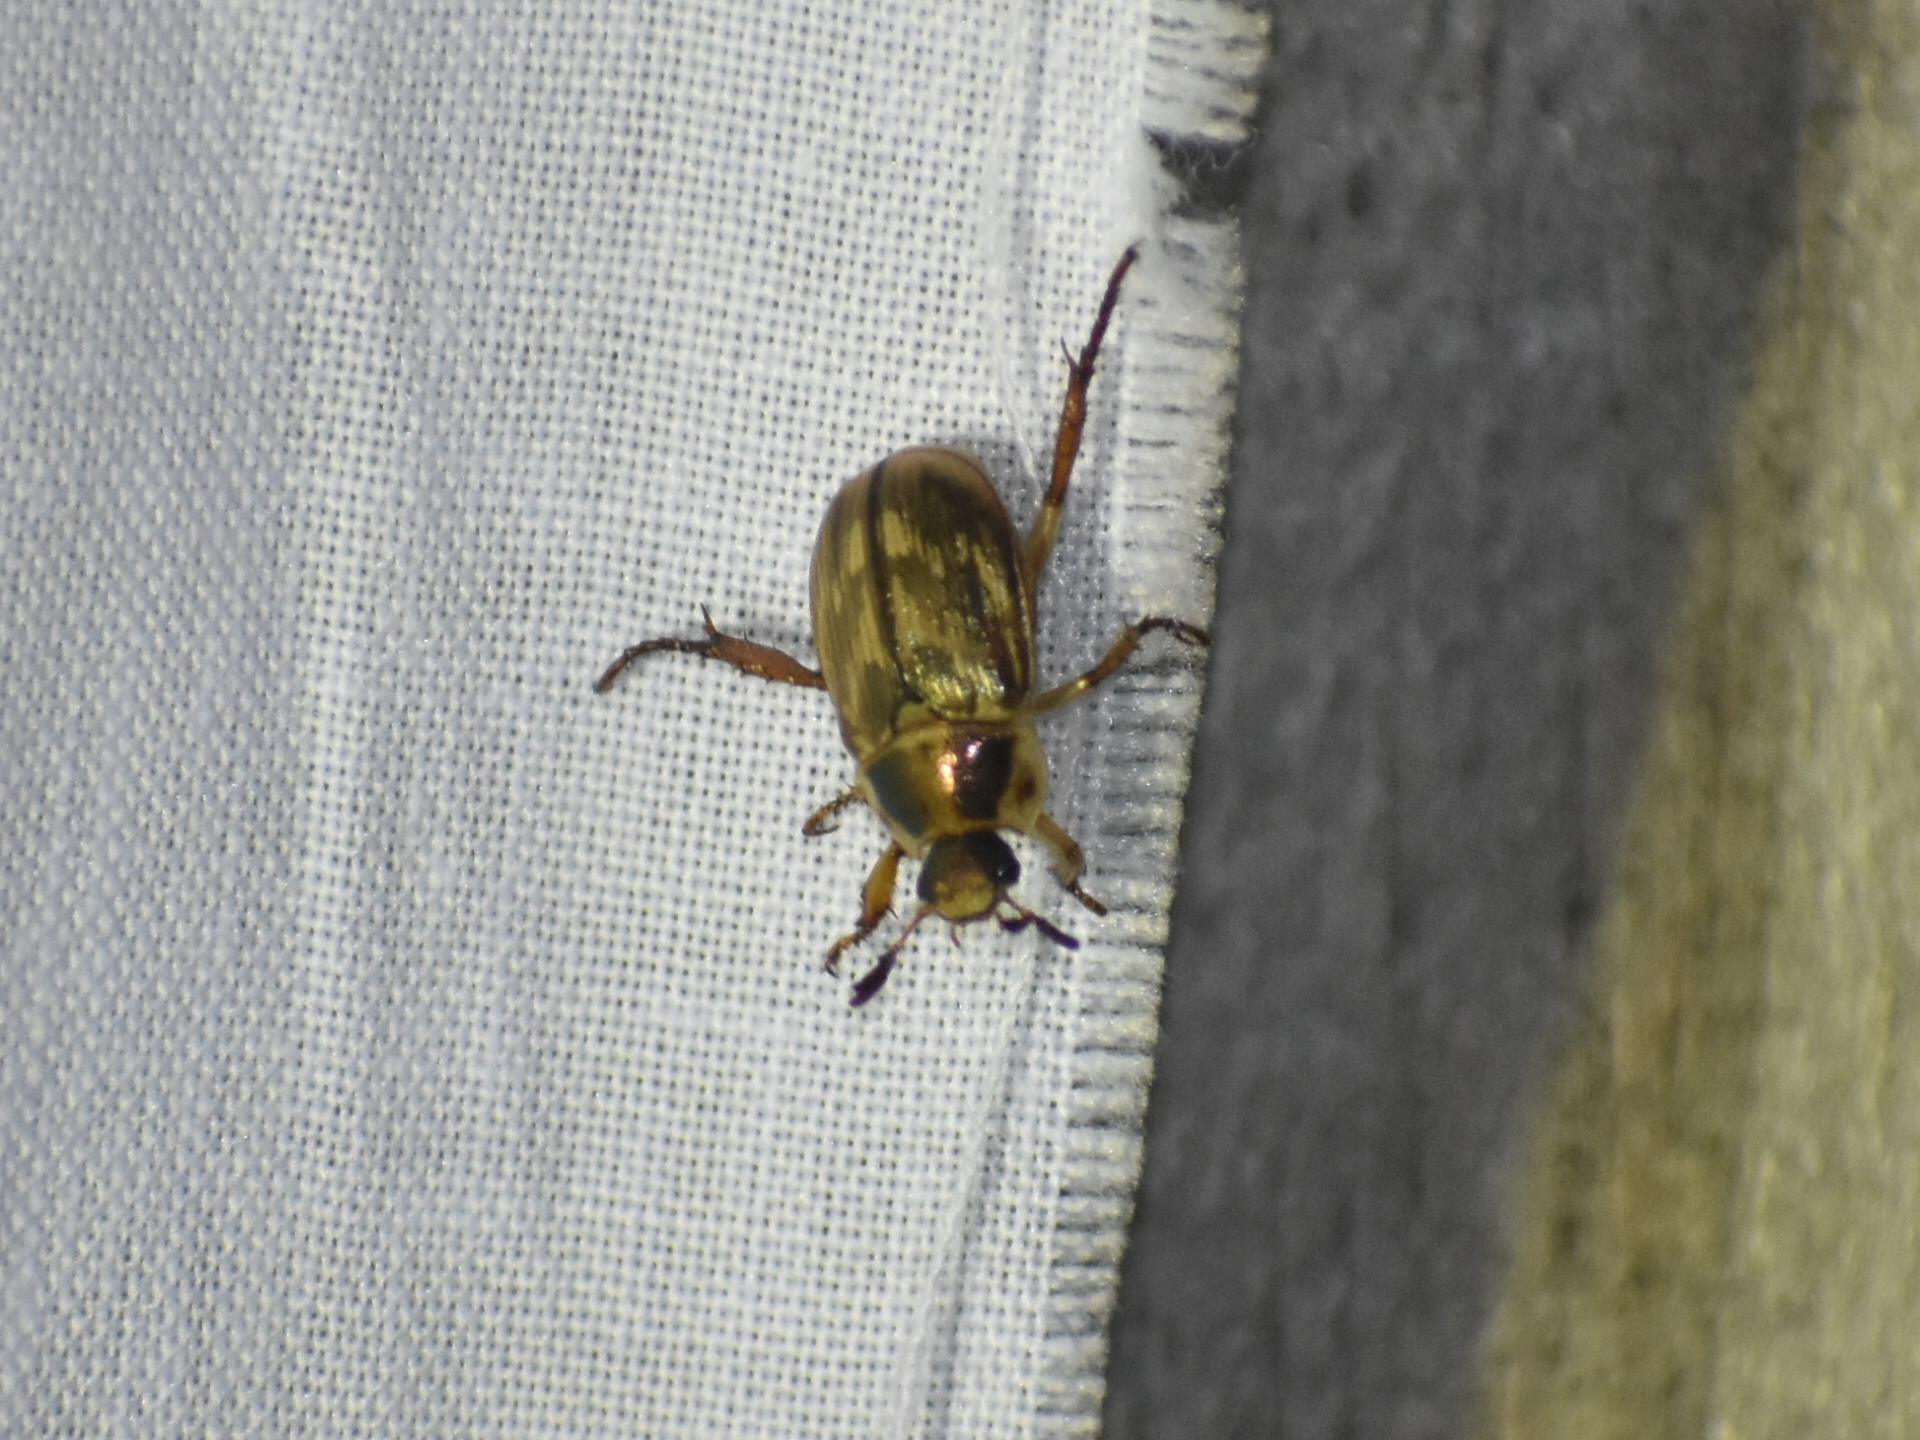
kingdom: Animalia
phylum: Arthropoda
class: Insecta
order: Coleoptera
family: Scarabaeidae
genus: Exomala
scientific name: Exomala orientalis
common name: Oriental beetle
